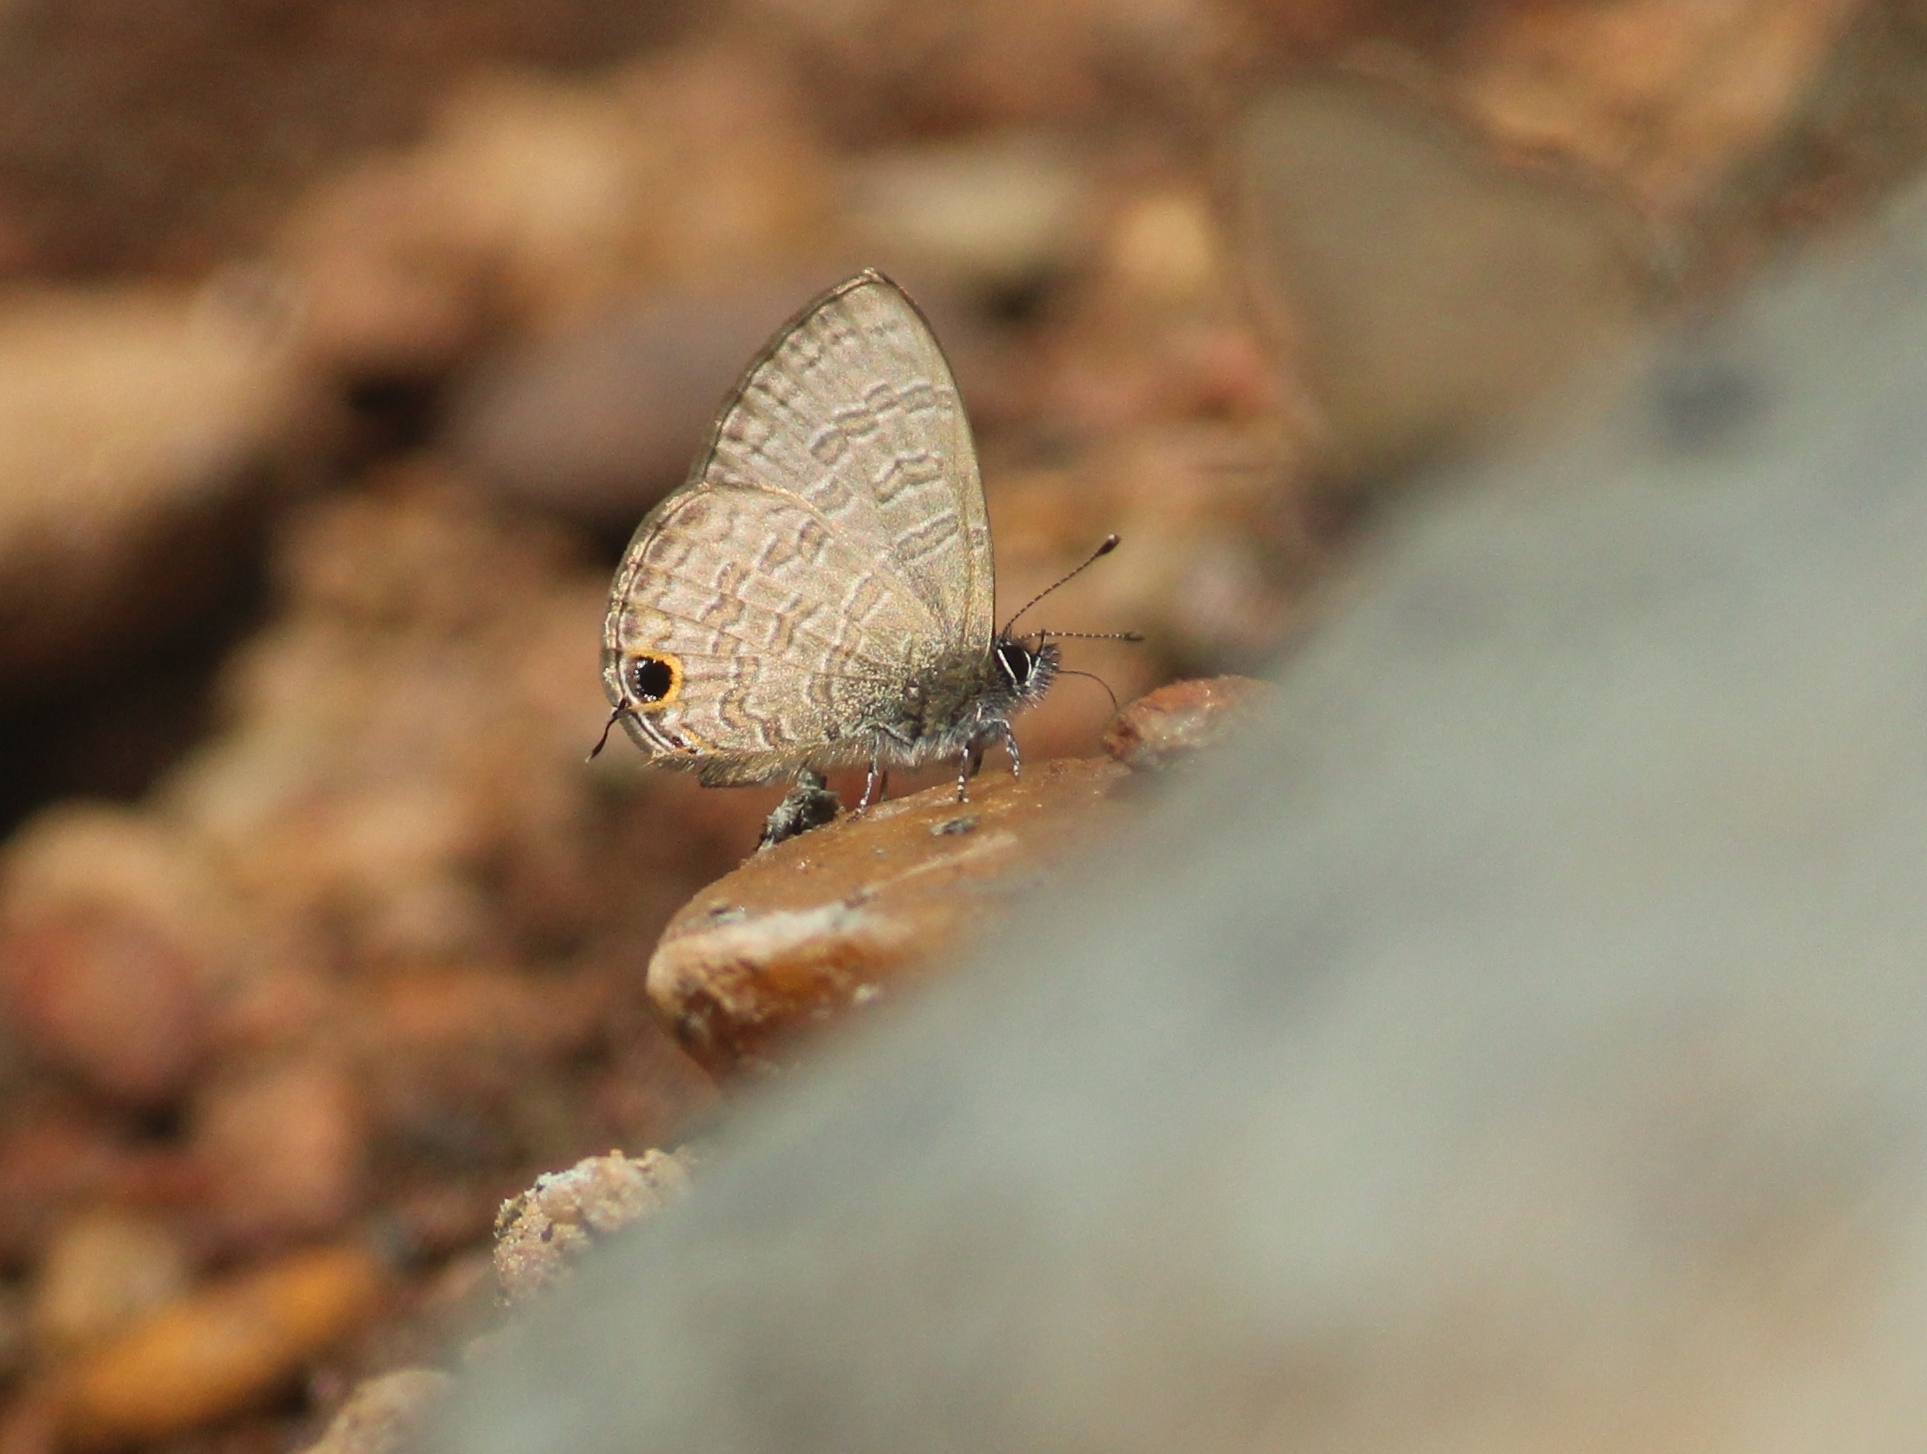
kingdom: Animalia
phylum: Arthropoda
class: Insecta
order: Lepidoptera
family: Lycaenidae
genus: Prosotas
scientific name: Prosotas nora
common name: Common line blue
